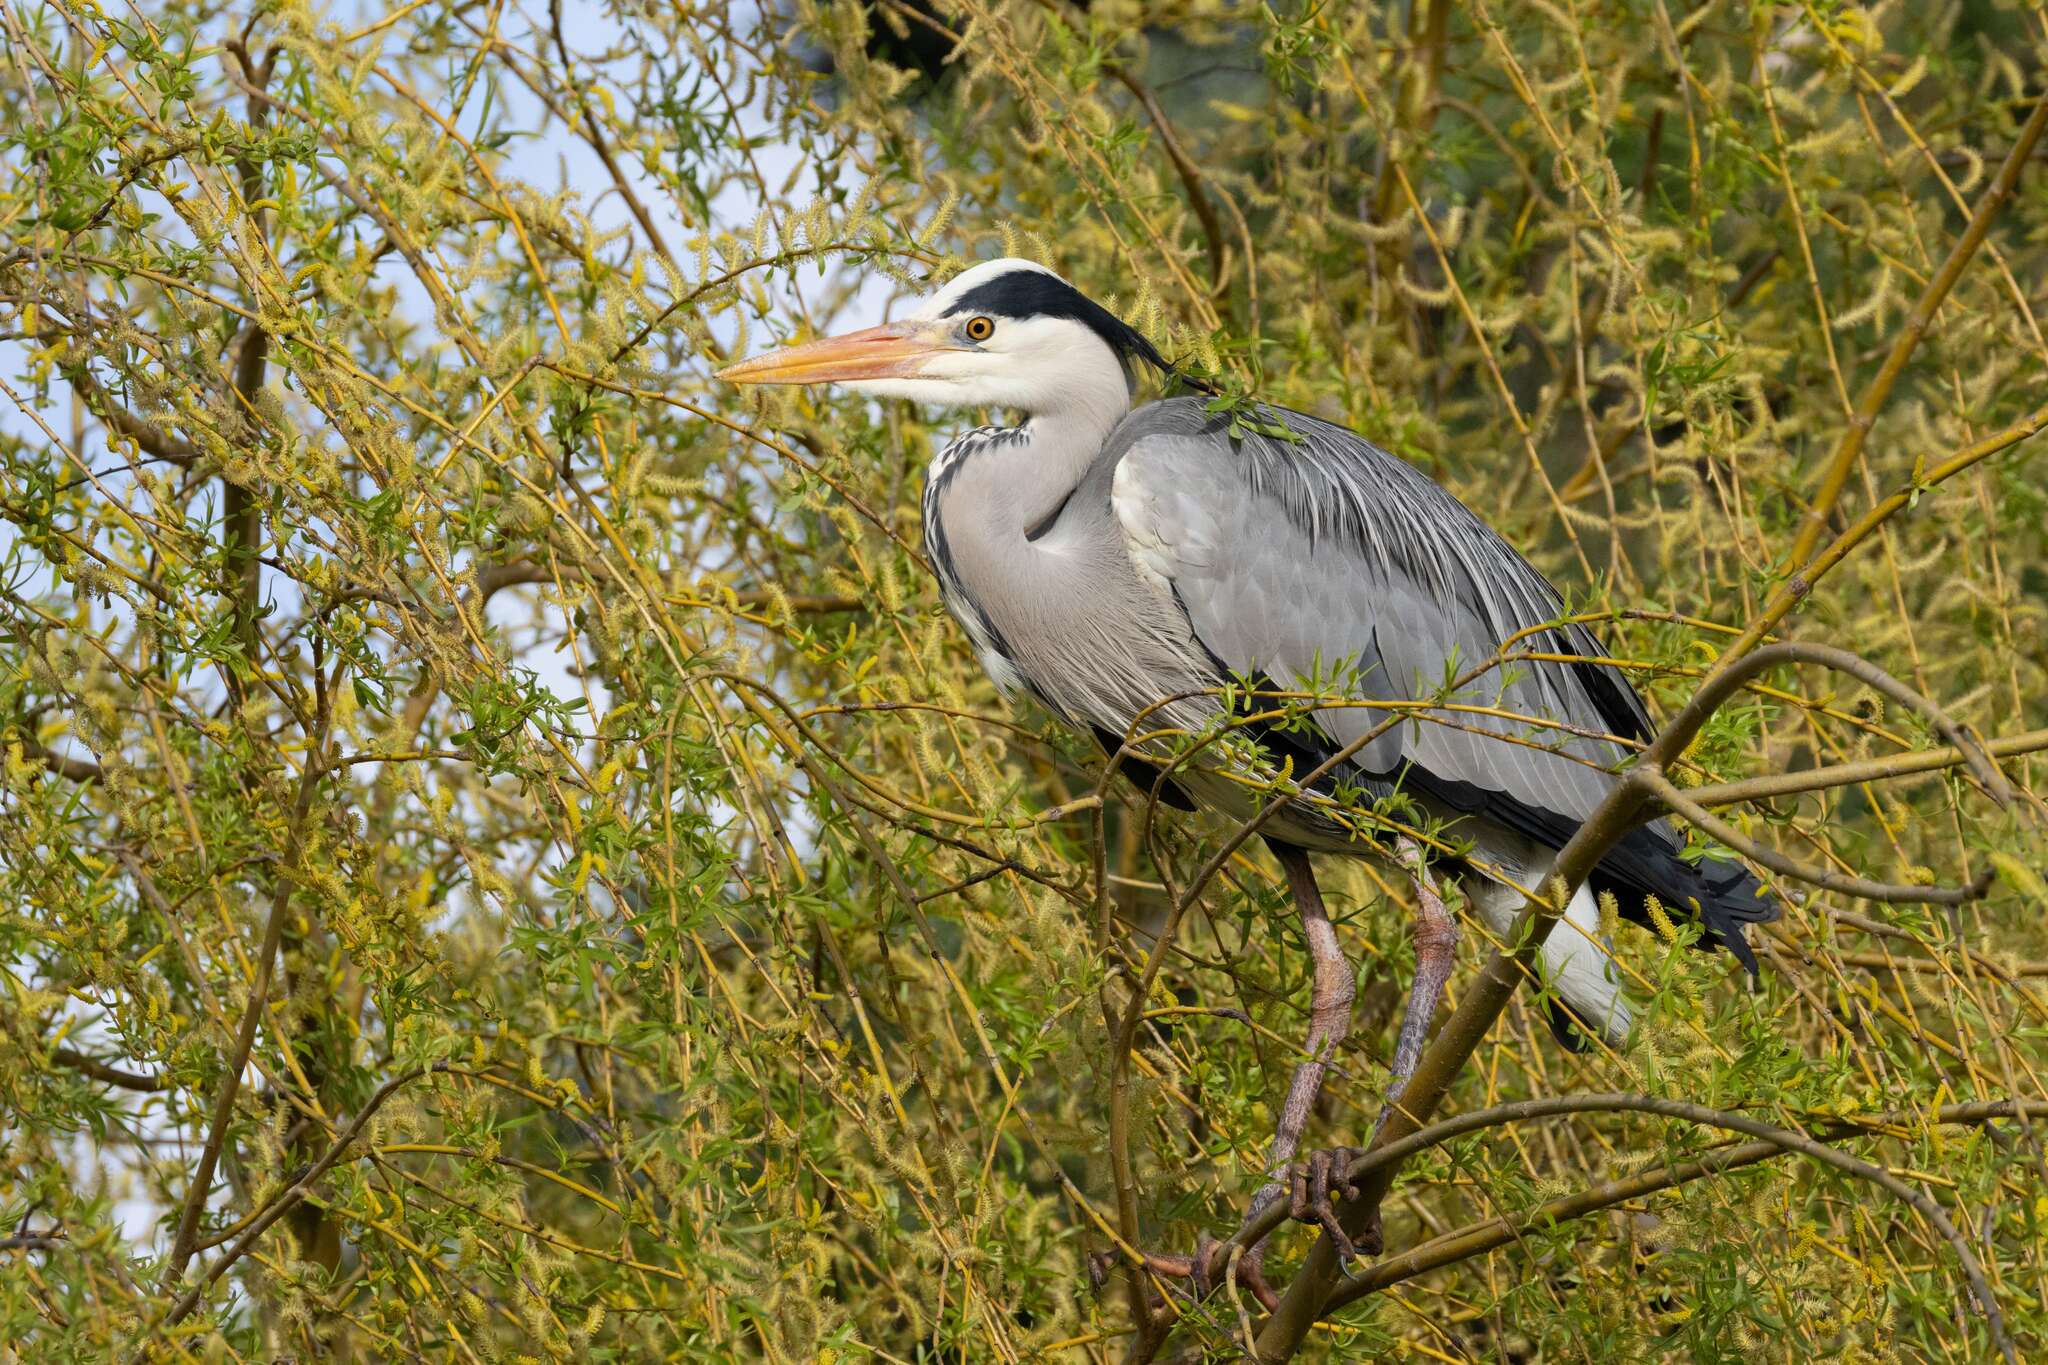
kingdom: Animalia
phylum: Chordata
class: Aves
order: Pelecaniformes
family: Ardeidae
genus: Ardea
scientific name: Ardea cinerea
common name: Grey heron
